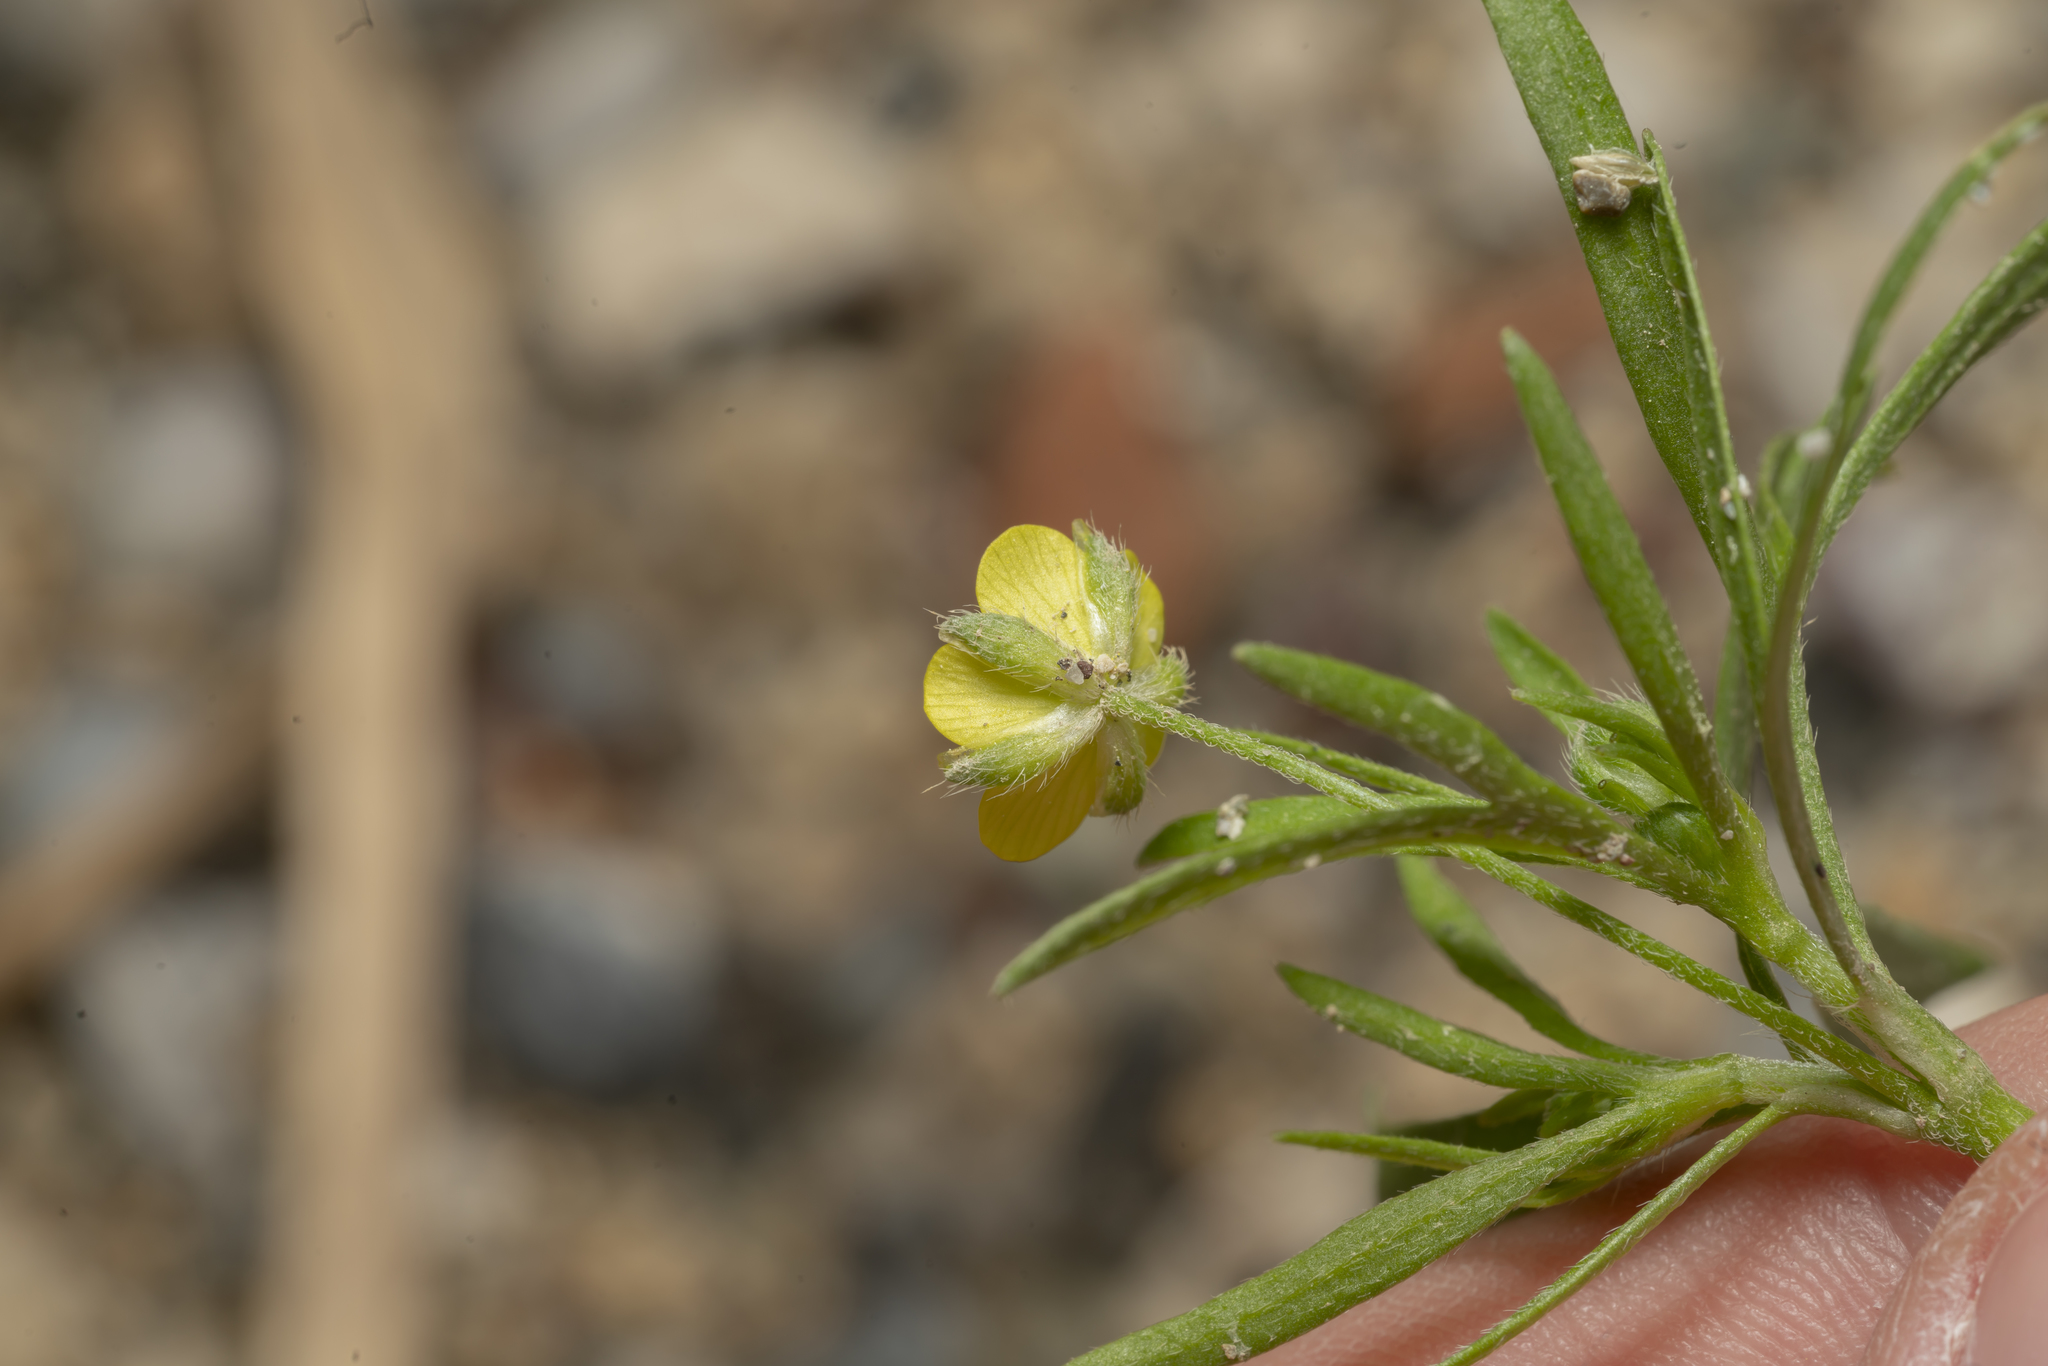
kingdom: Plantae
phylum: Tracheophyta
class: Magnoliopsida
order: Ranunculales
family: Ranunculaceae
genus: Ranunculus
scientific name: Ranunculus arvensis
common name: Corn buttercup
